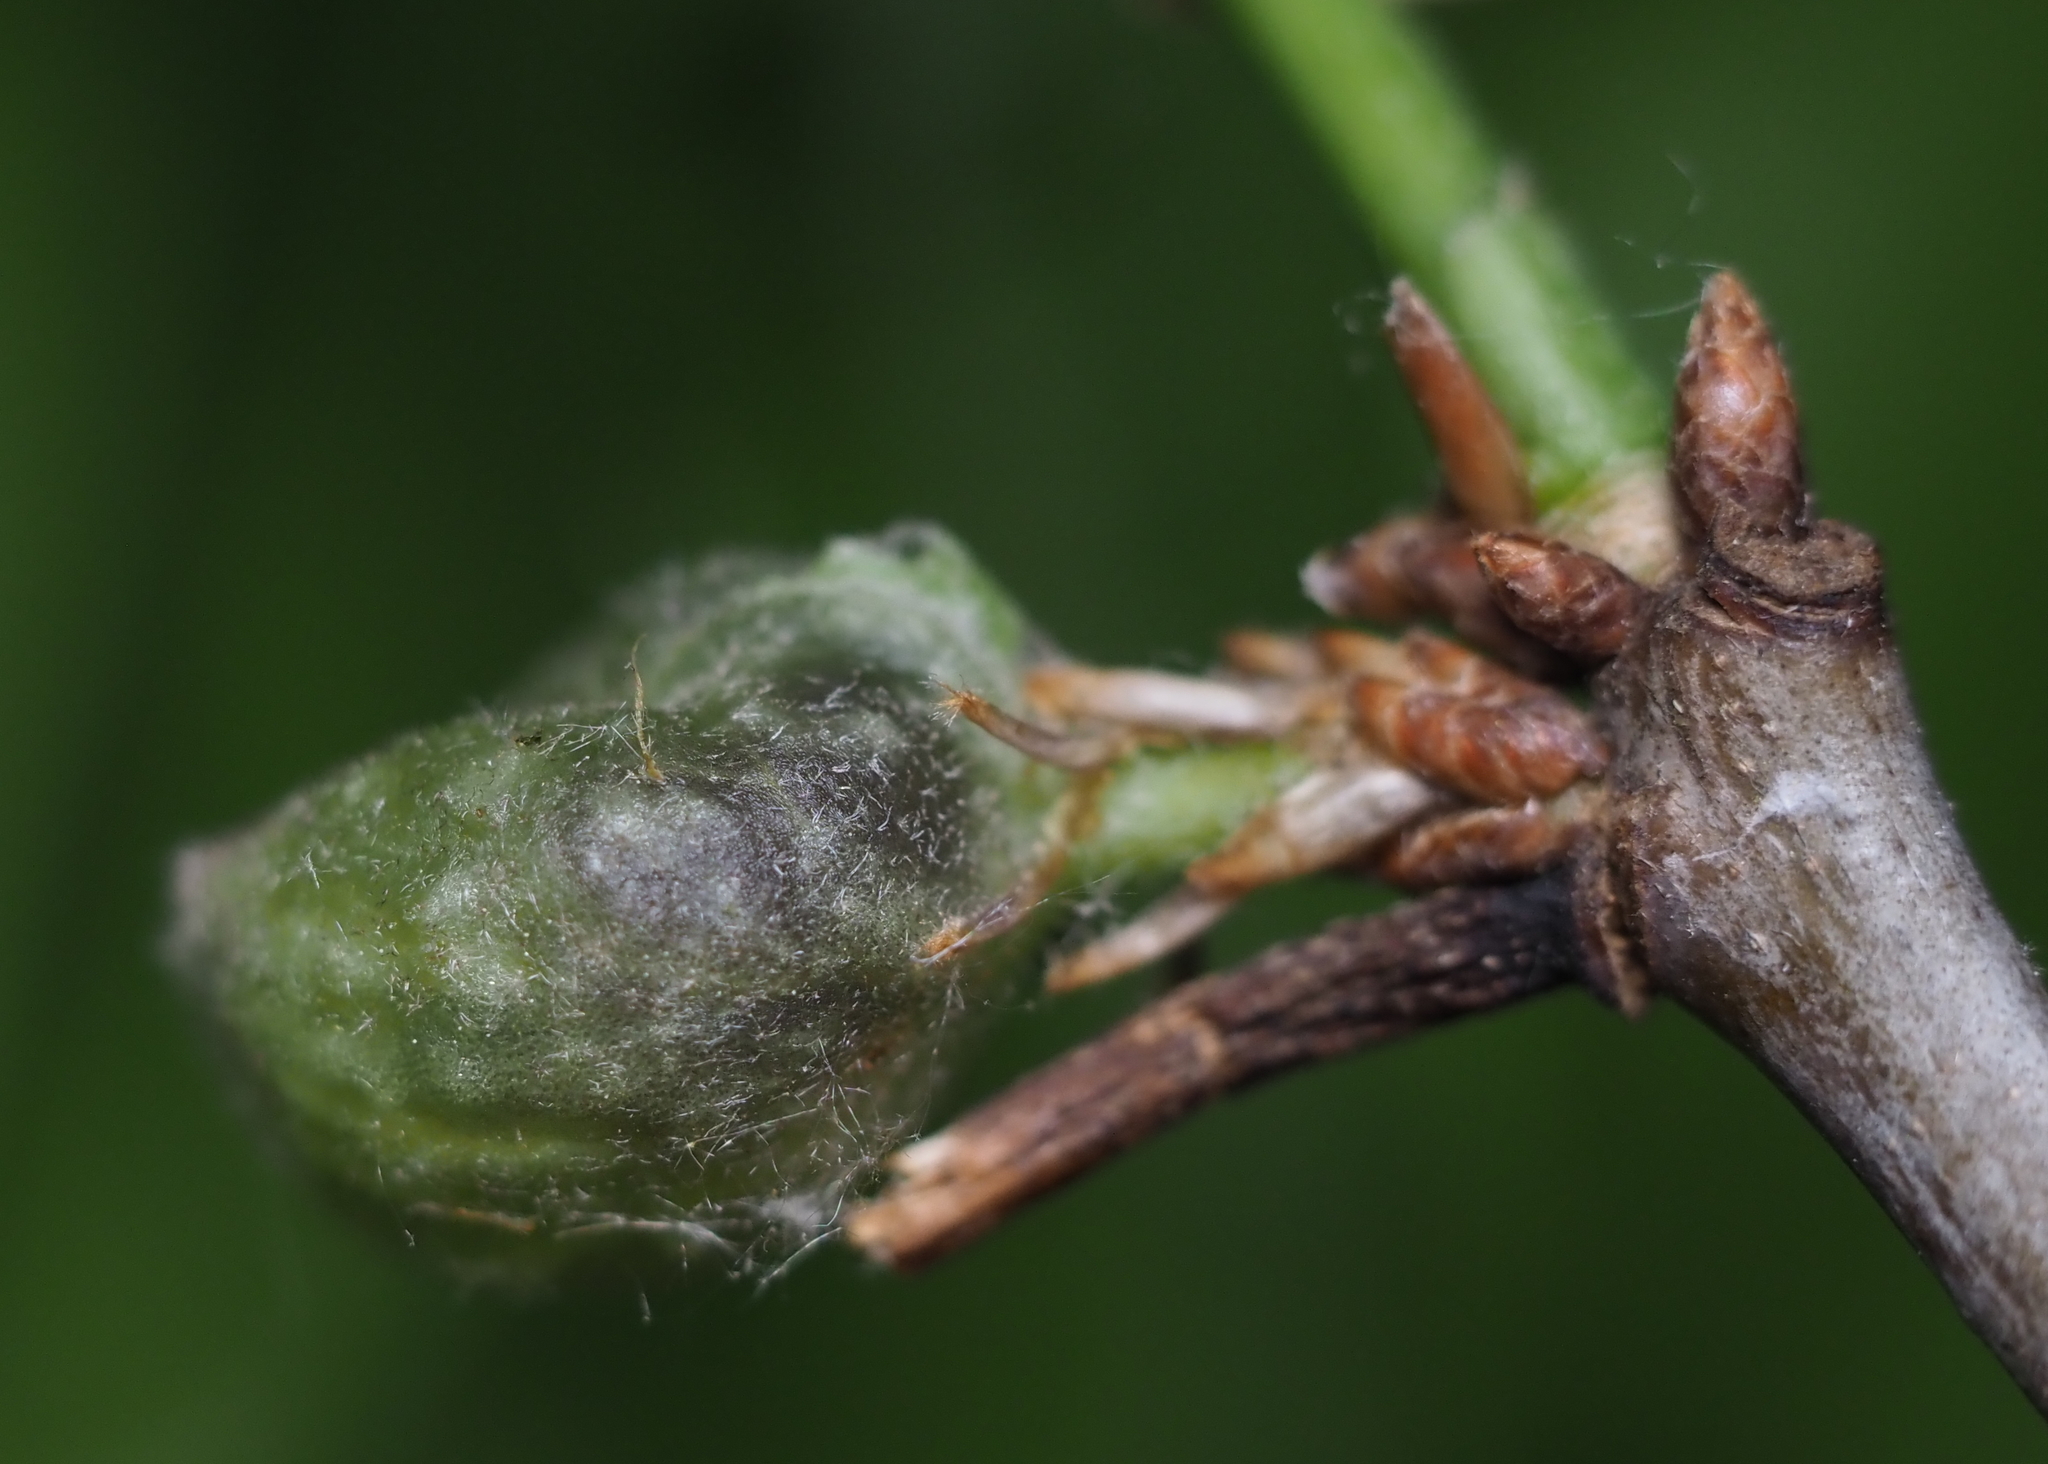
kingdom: Animalia
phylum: Arthropoda
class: Insecta
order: Hymenoptera
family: Cynipidae
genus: Dryocosmus
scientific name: Dryocosmus quercuspalustris
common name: Succulent oak gall wasp
